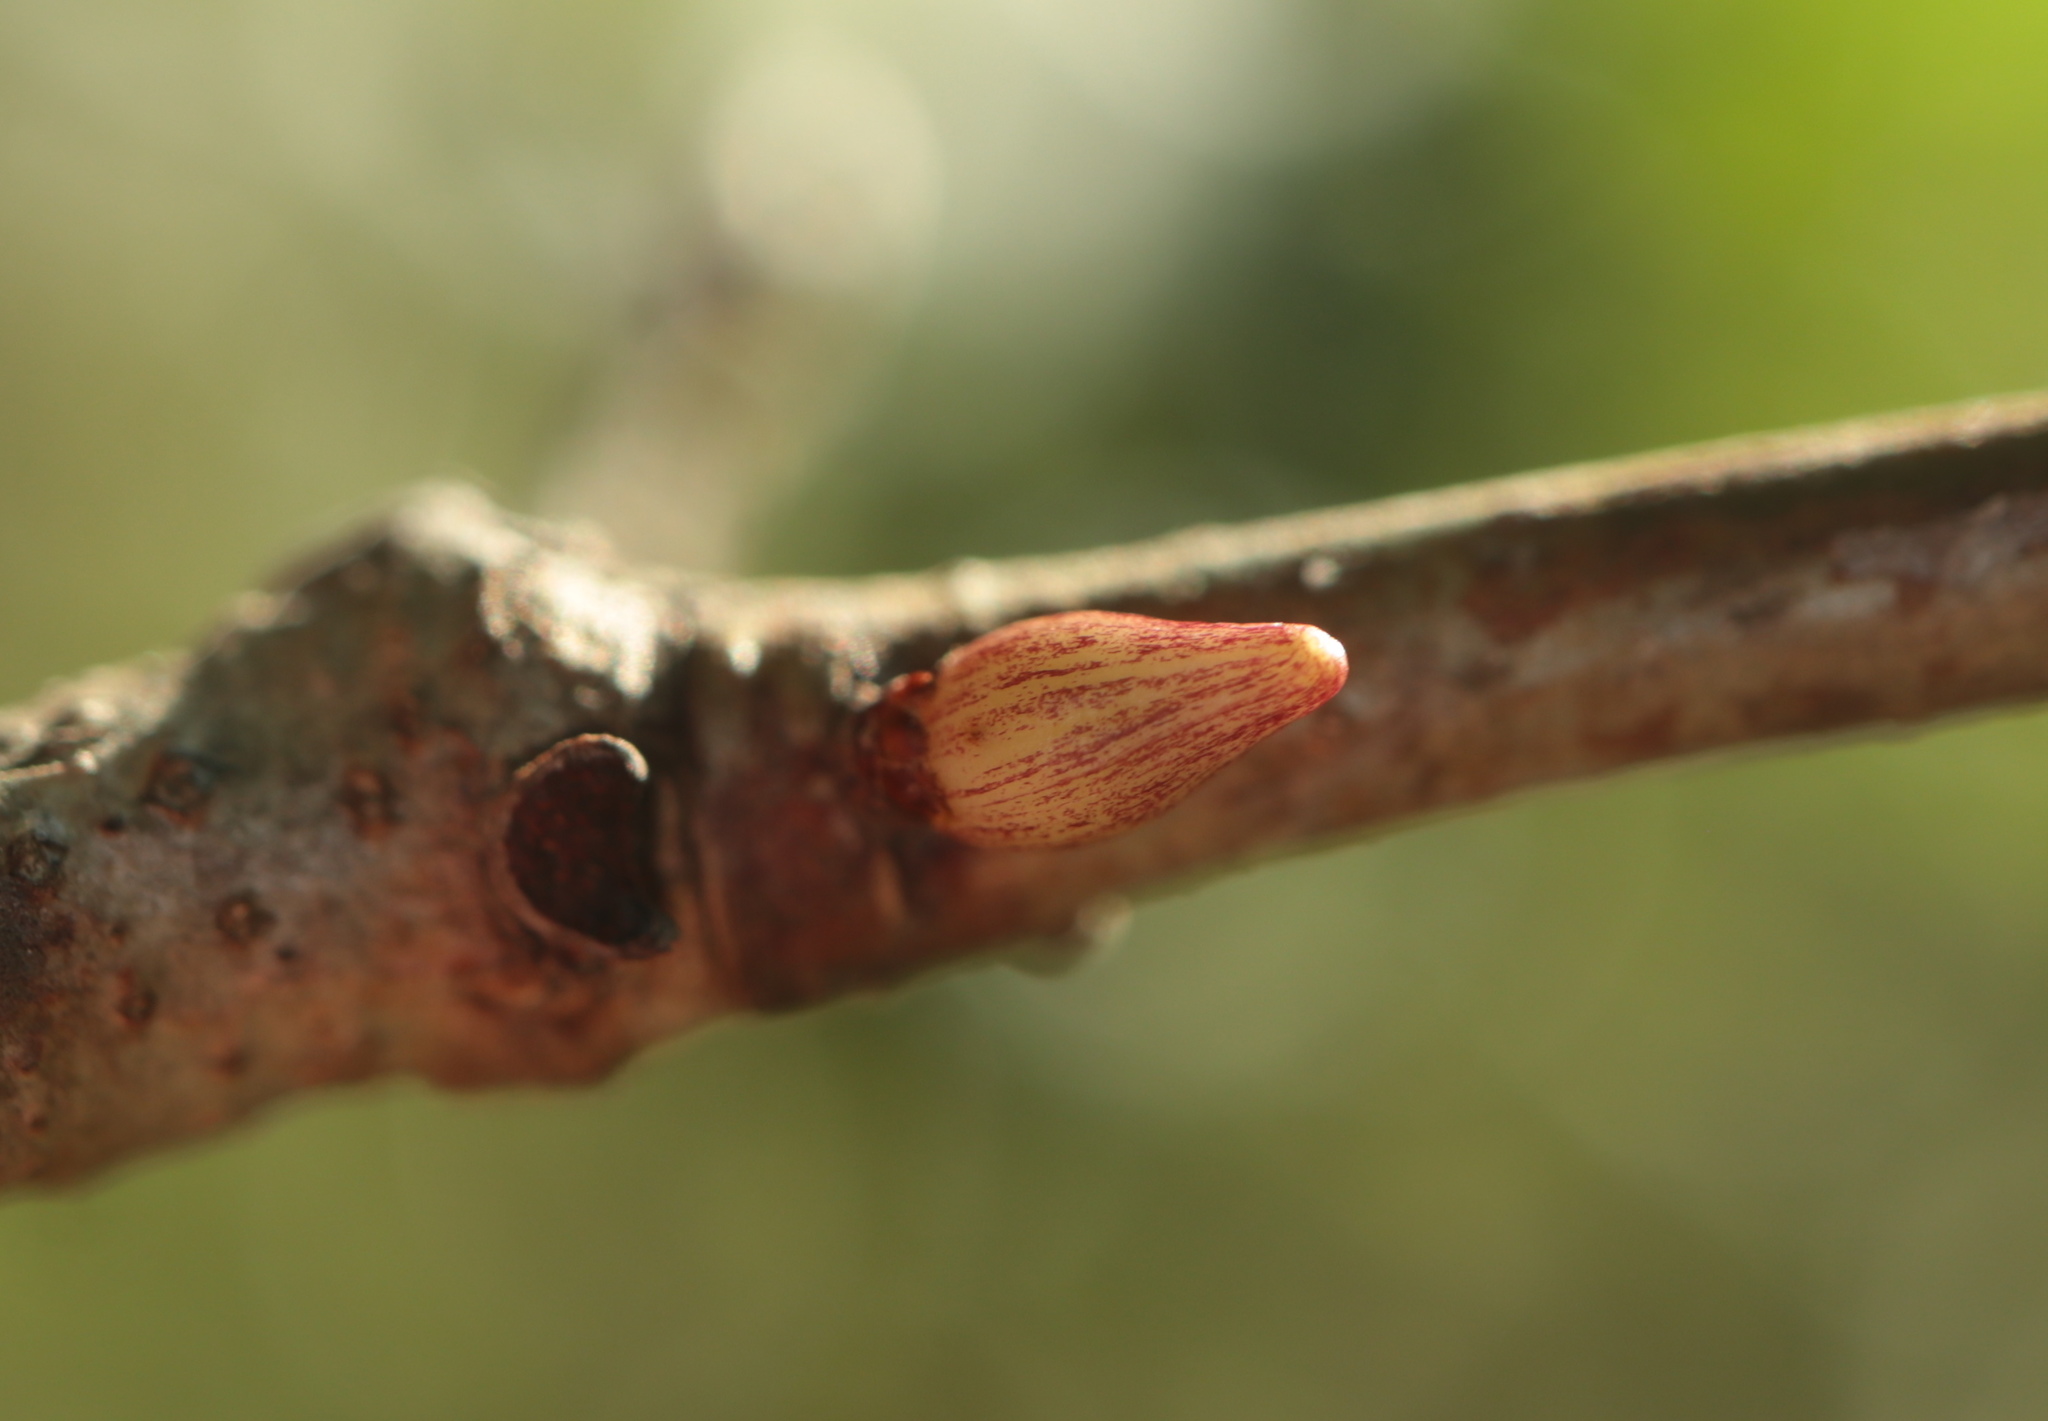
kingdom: Animalia
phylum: Arthropoda
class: Insecta
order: Hymenoptera
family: Cynipidae
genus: Andricus
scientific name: Andricus
